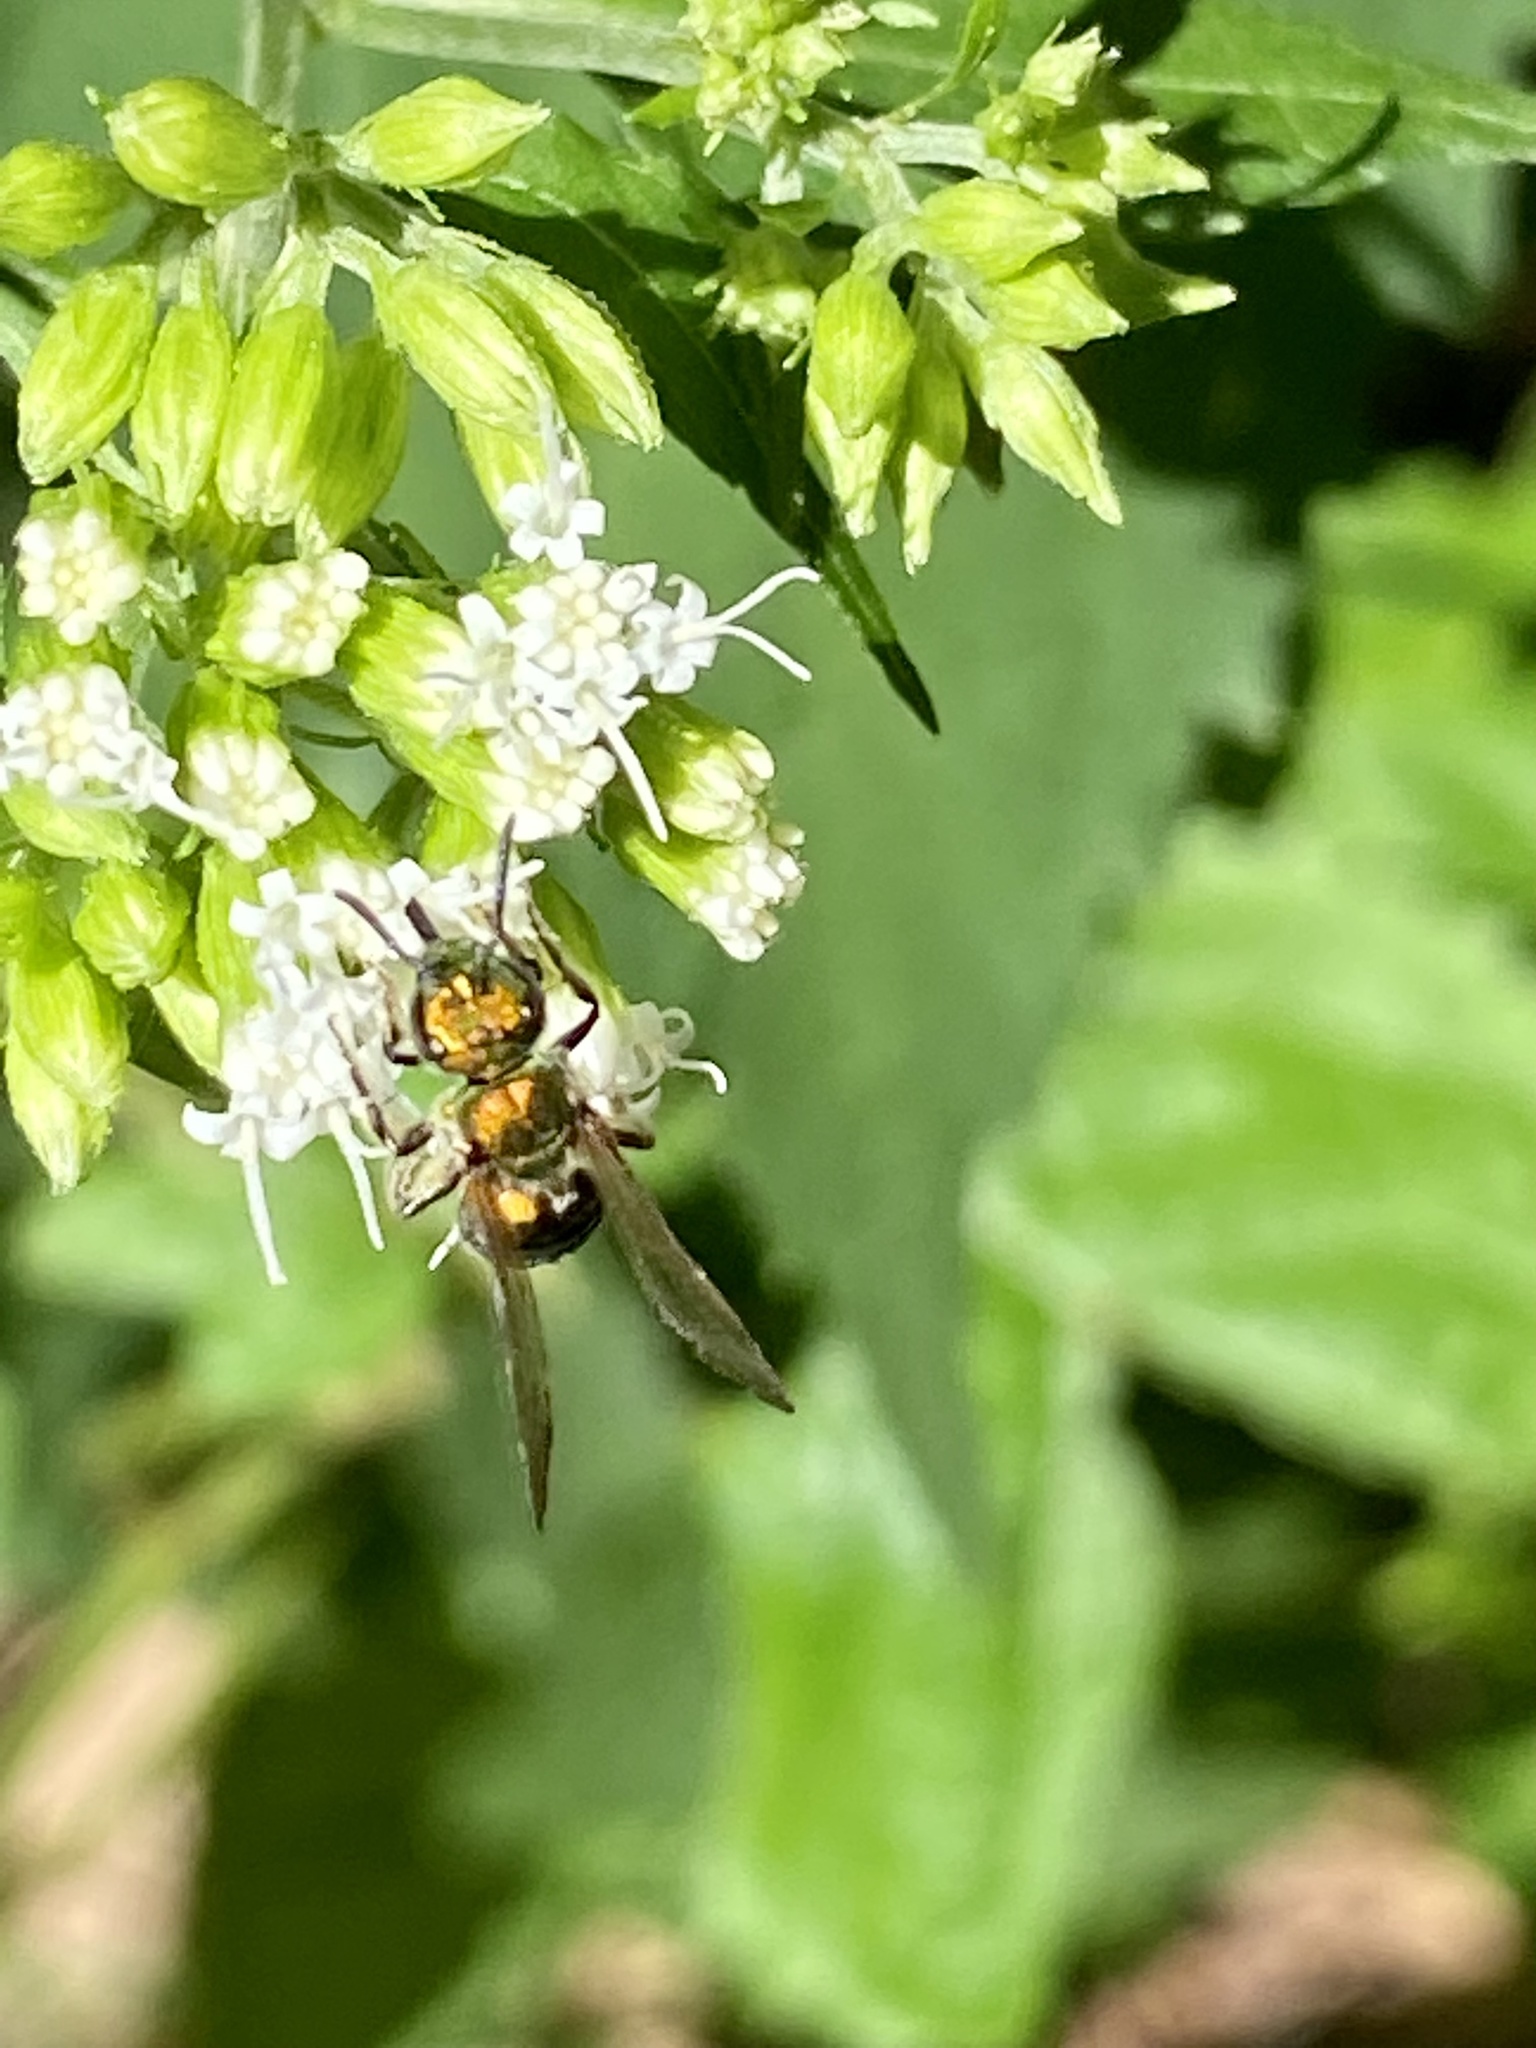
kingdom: Animalia
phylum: Arthropoda
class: Insecta
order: Hymenoptera
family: Halictidae
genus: Augochlora
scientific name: Augochlora pura
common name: Pure green sweat bee
